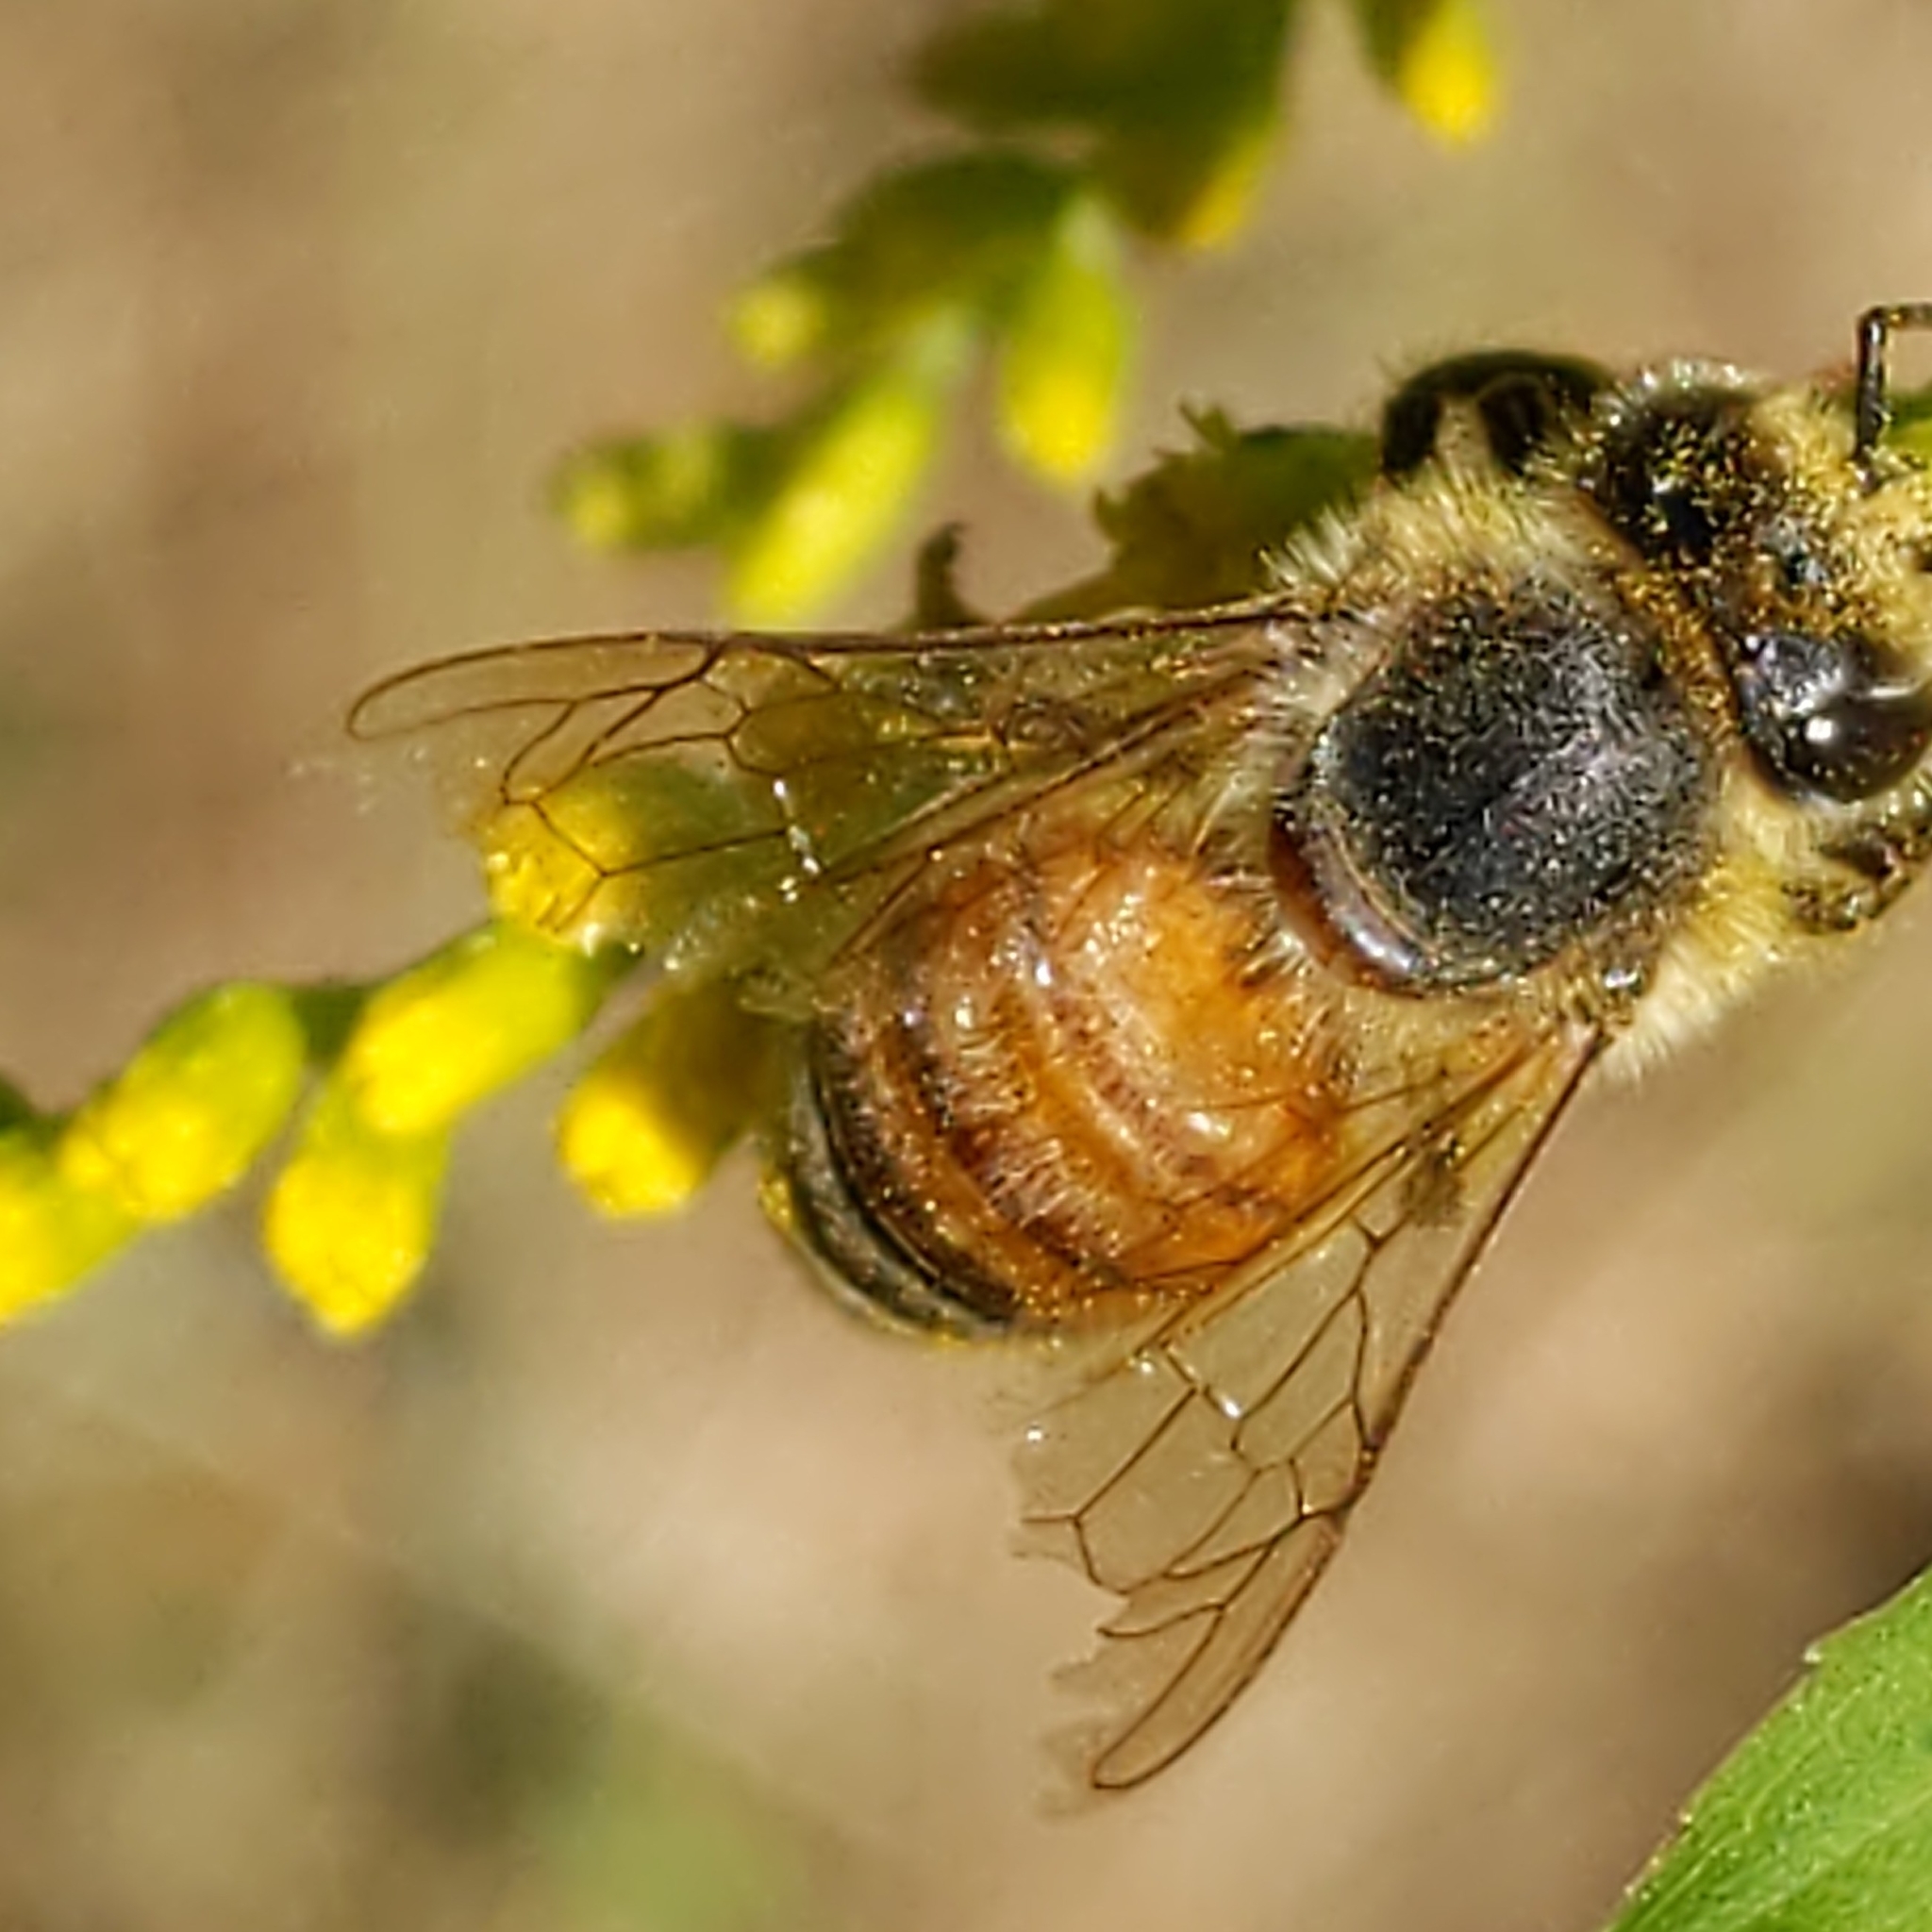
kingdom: Animalia
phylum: Arthropoda
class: Insecta
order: Hymenoptera
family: Apidae
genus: Apis
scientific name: Apis mellifera
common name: Honey bee
